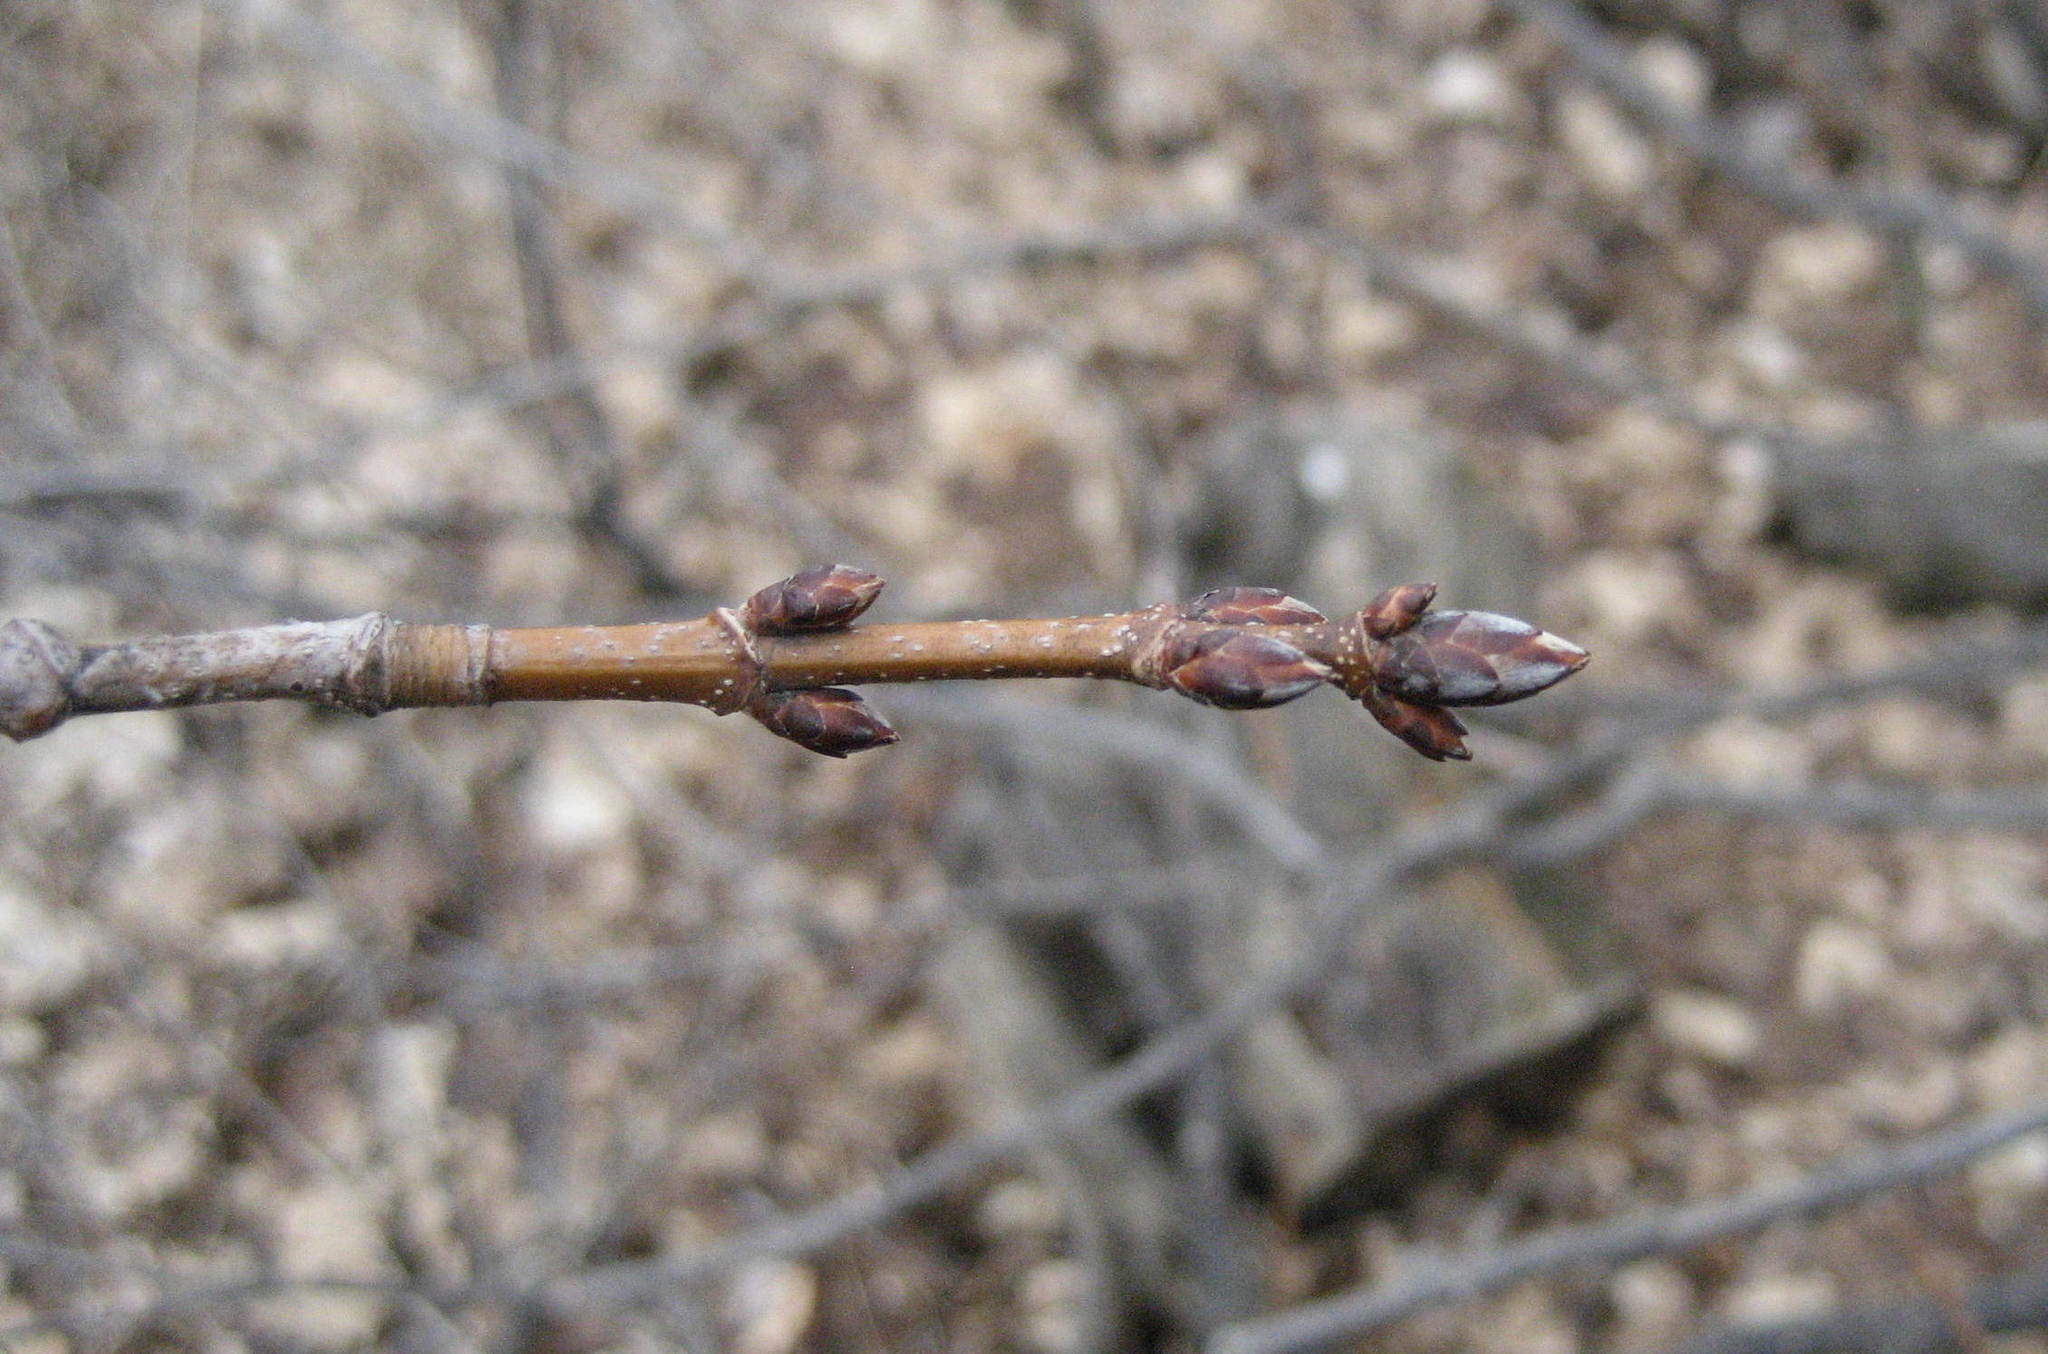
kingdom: Plantae
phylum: Tracheophyta
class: Magnoliopsida
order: Sapindales
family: Sapindaceae
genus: Acer
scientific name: Acer saccharum
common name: Sugar maple
